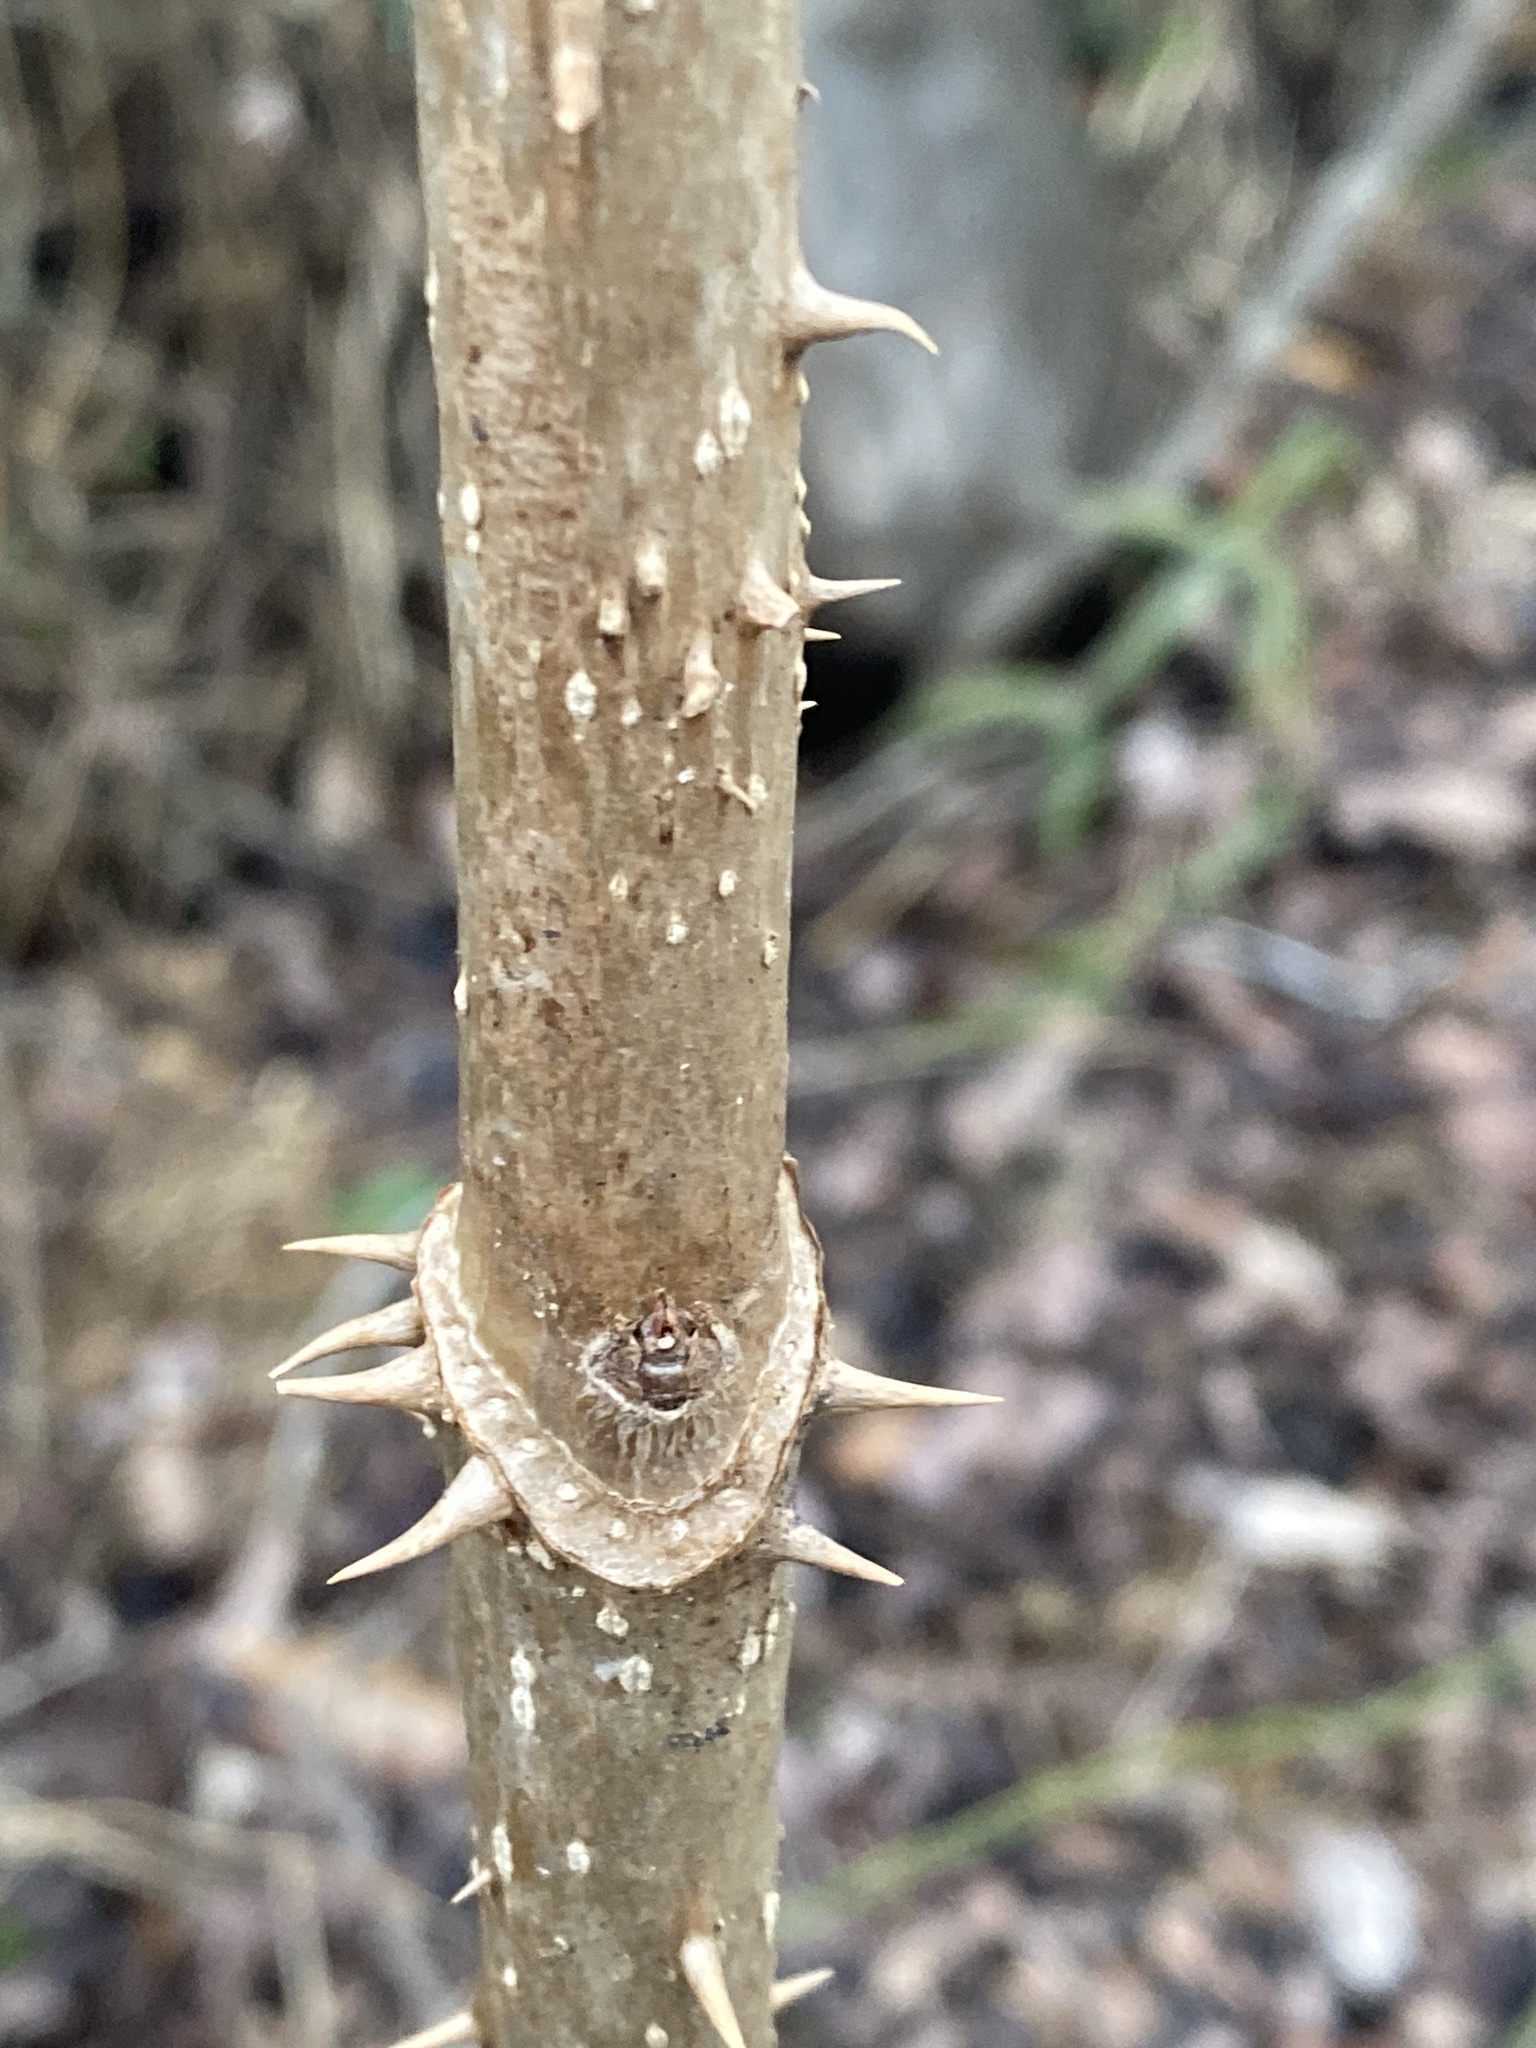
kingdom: Plantae
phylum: Tracheophyta
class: Magnoliopsida
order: Apiales
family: Araliaceae
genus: Aralia
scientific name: Aralia spinosa
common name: Hercules'-club
